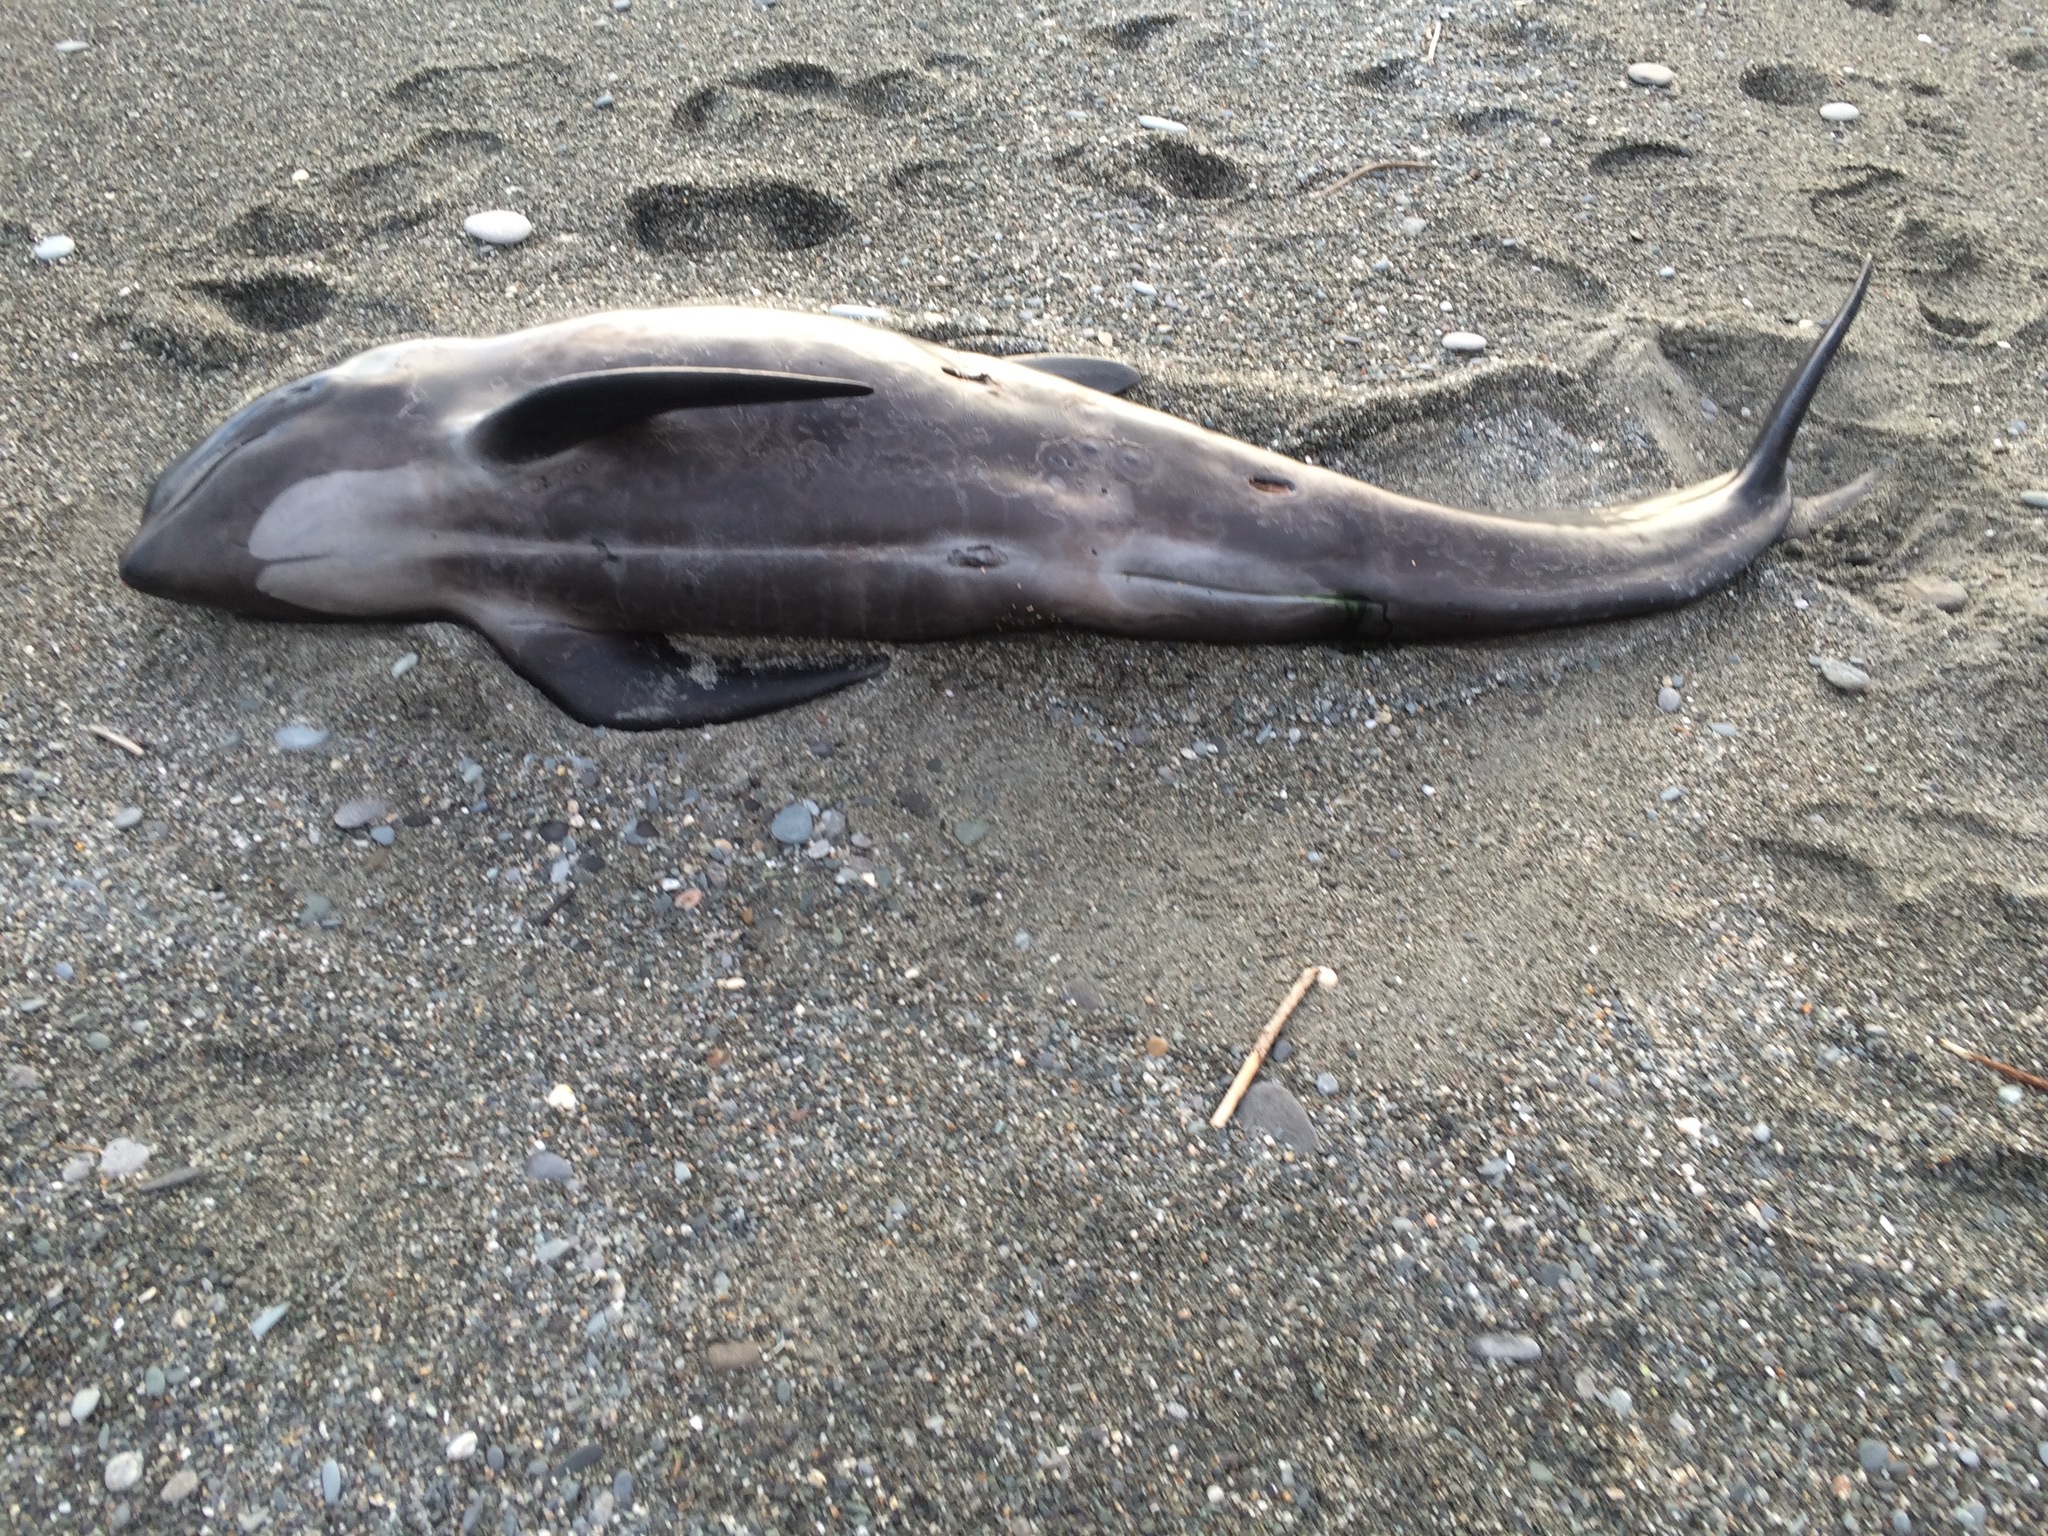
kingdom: Animalia
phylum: Chordata
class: Mammalia
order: Cetacea
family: Delphinidae
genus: Globicephala
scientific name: Globicephala melas
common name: Long-finned pilot whale
